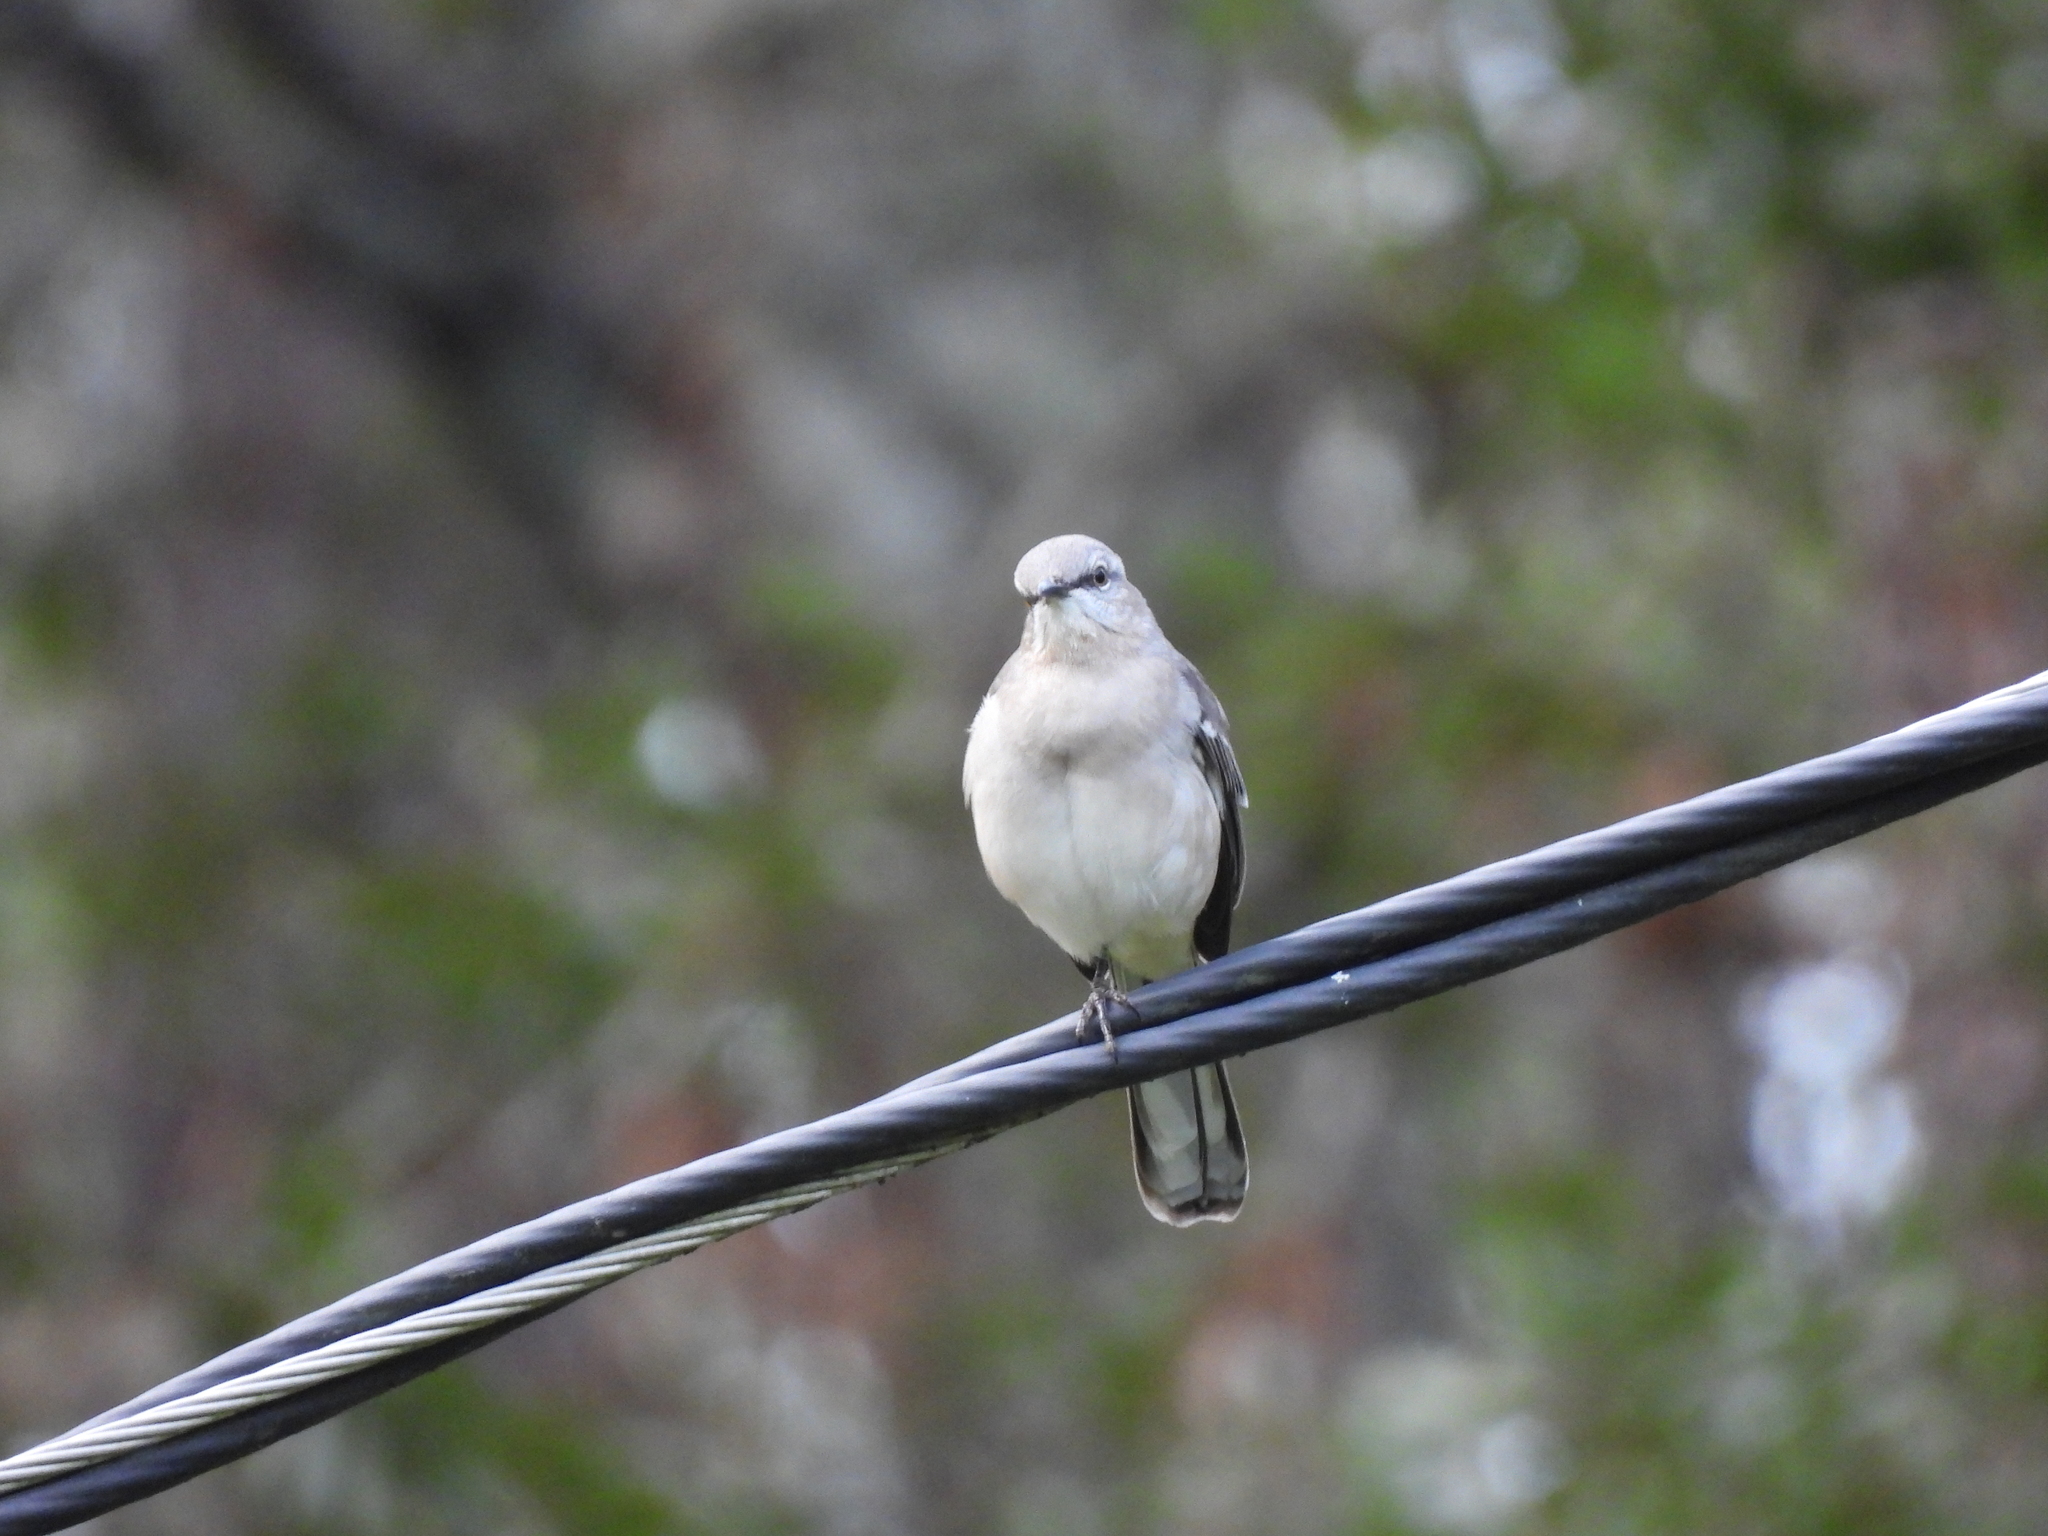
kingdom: Animalia
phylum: Chordata
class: Aves
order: Passeriformes
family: Mimidae
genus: Mimus
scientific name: Mimus polyglottos
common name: Northern mockingbird
